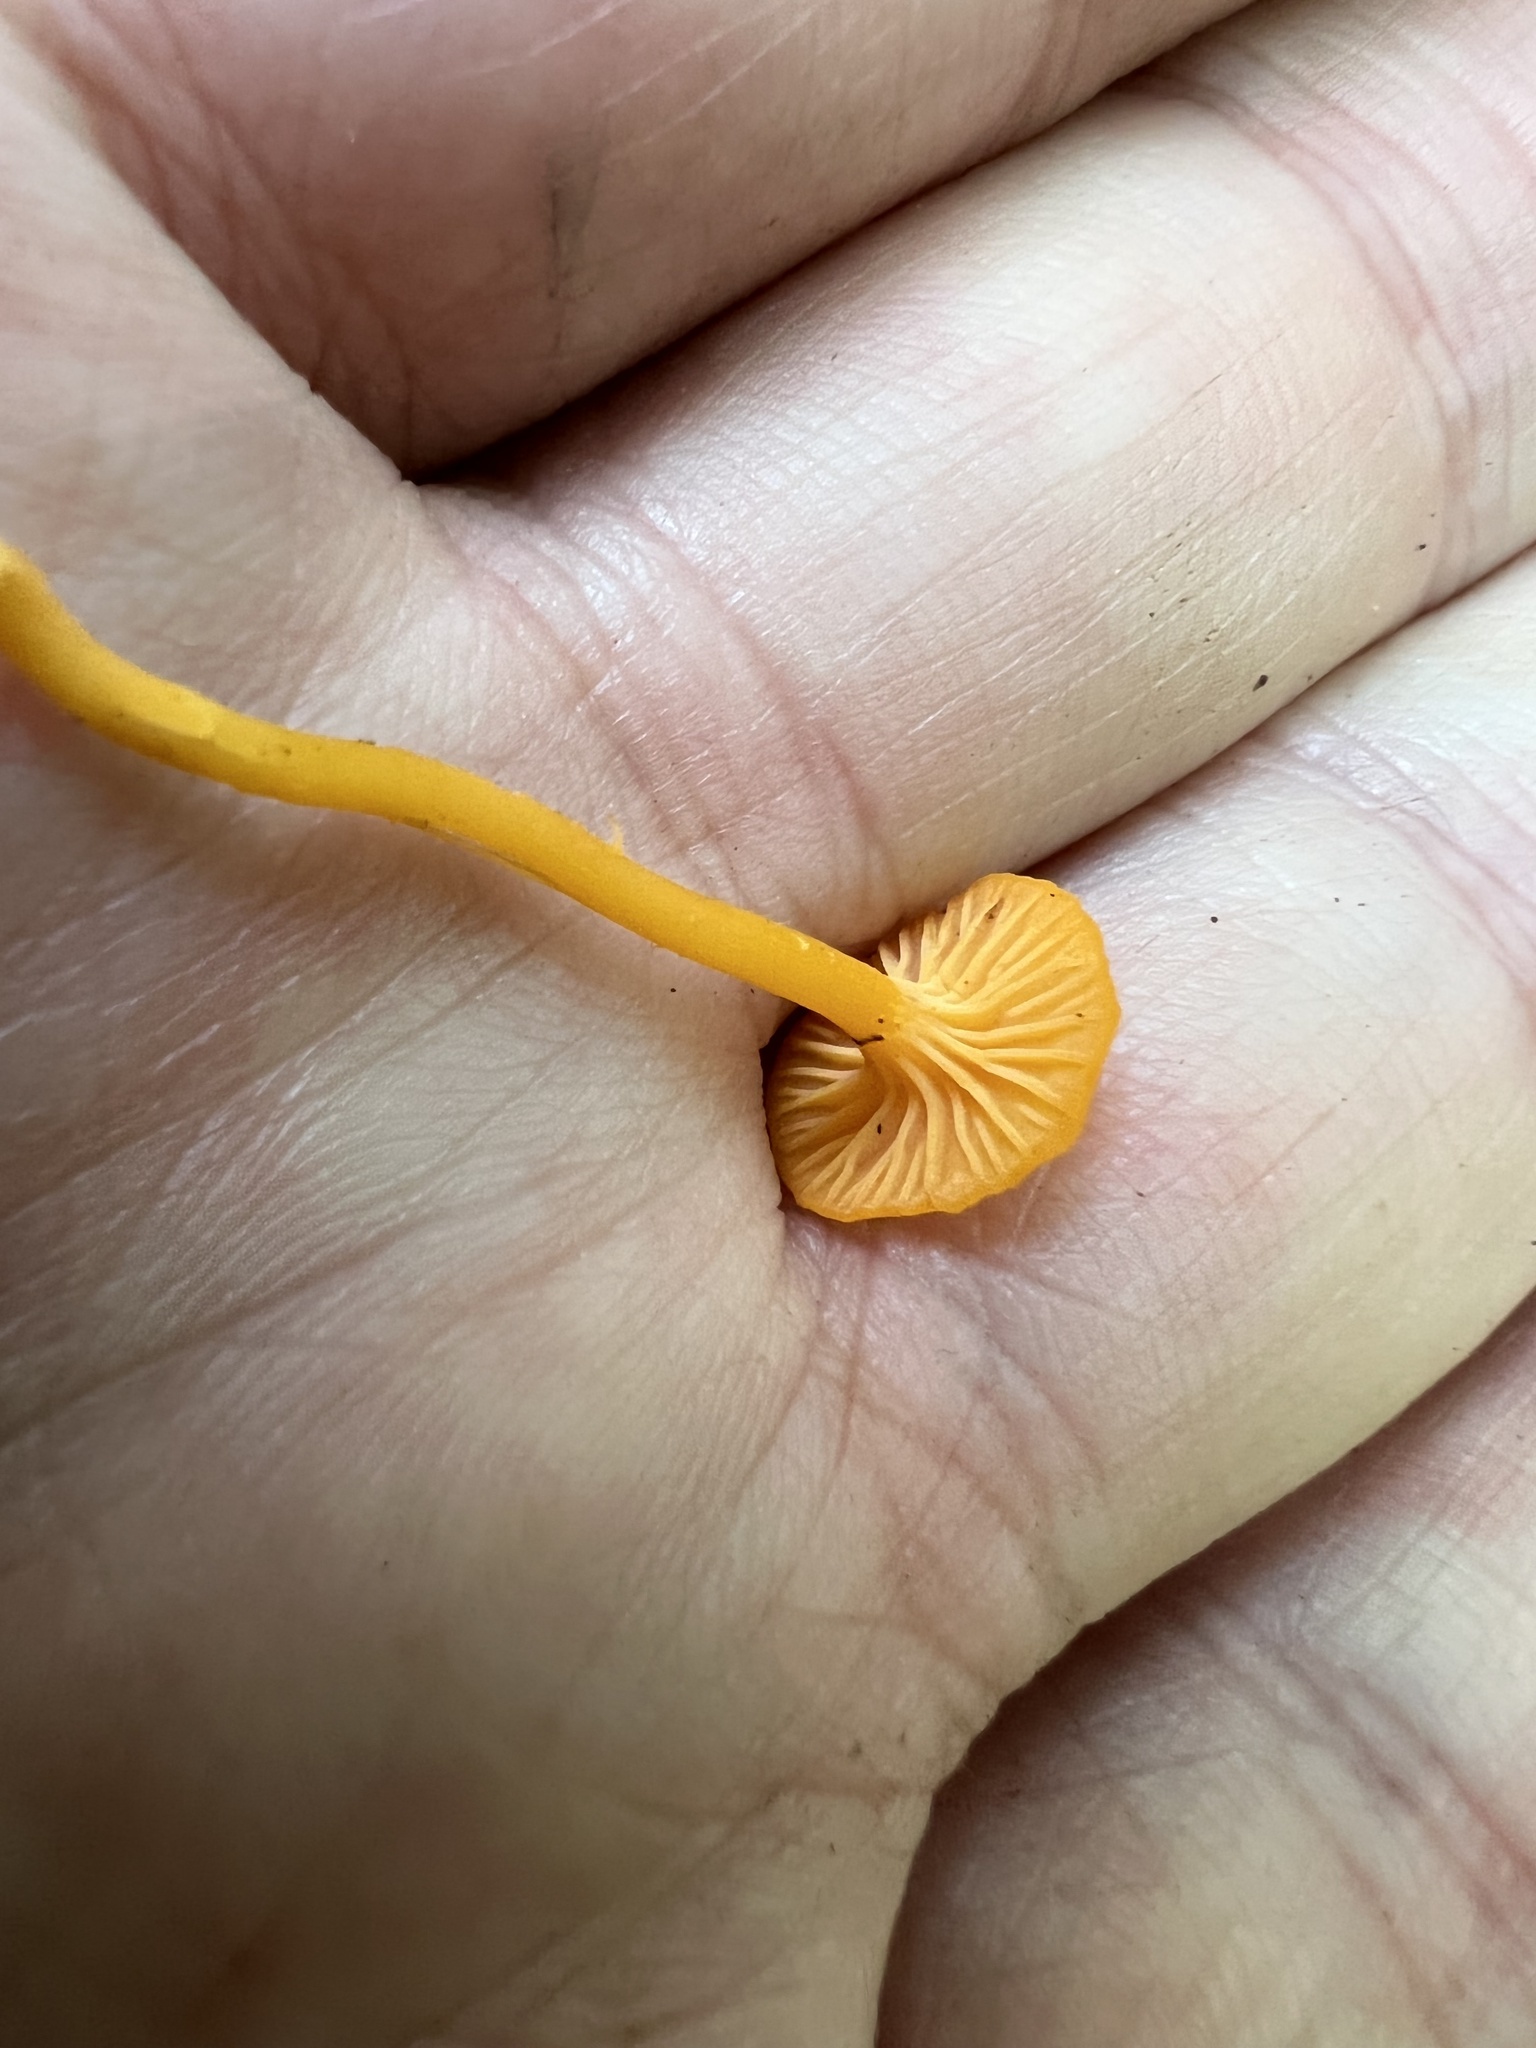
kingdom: Fungi
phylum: Basidiomycota
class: Agaricomycetes
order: Cantharellales
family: Hydnaceae
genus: Cantharellus
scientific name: Cantharellus minor
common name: Small chanterelle
